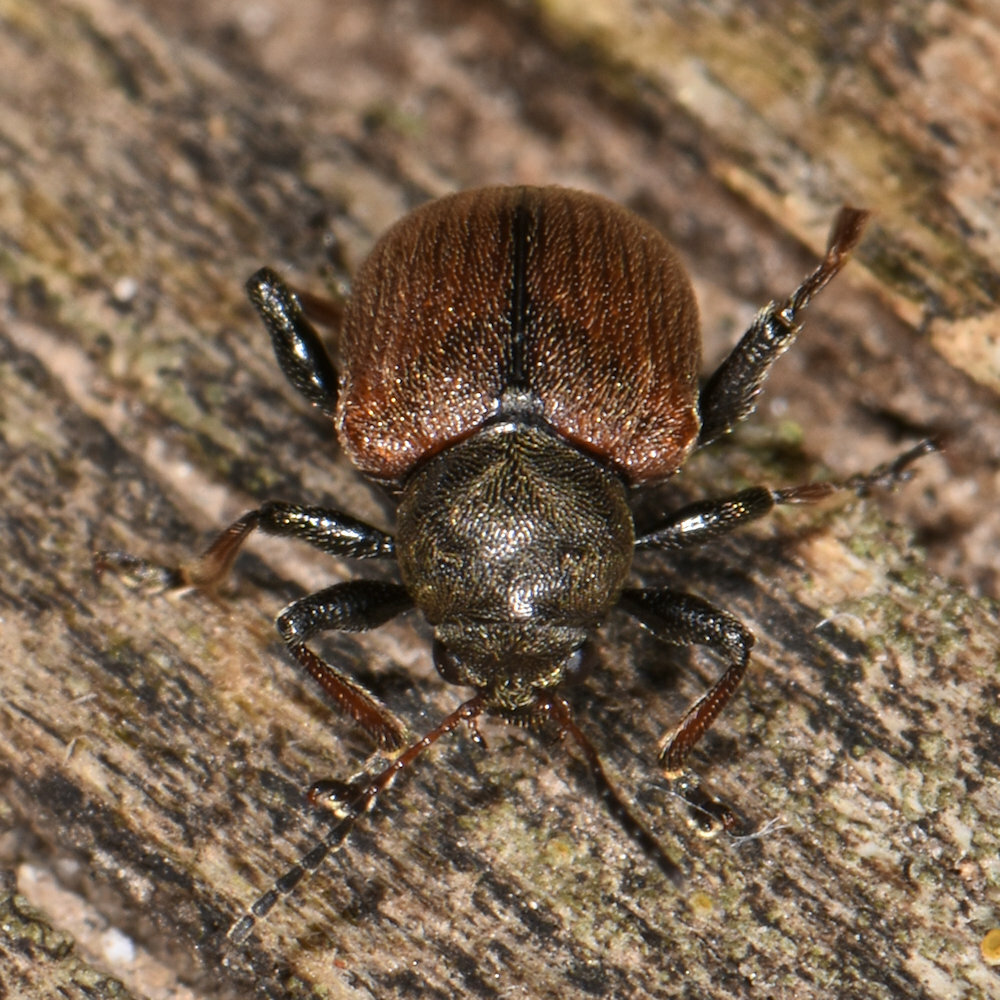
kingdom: Animalia
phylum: Arthropoda
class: Insecta
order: Coleoptera
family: Chrysomelidae
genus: Bromius
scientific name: Bromius obscurus
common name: Western grape rootworm
